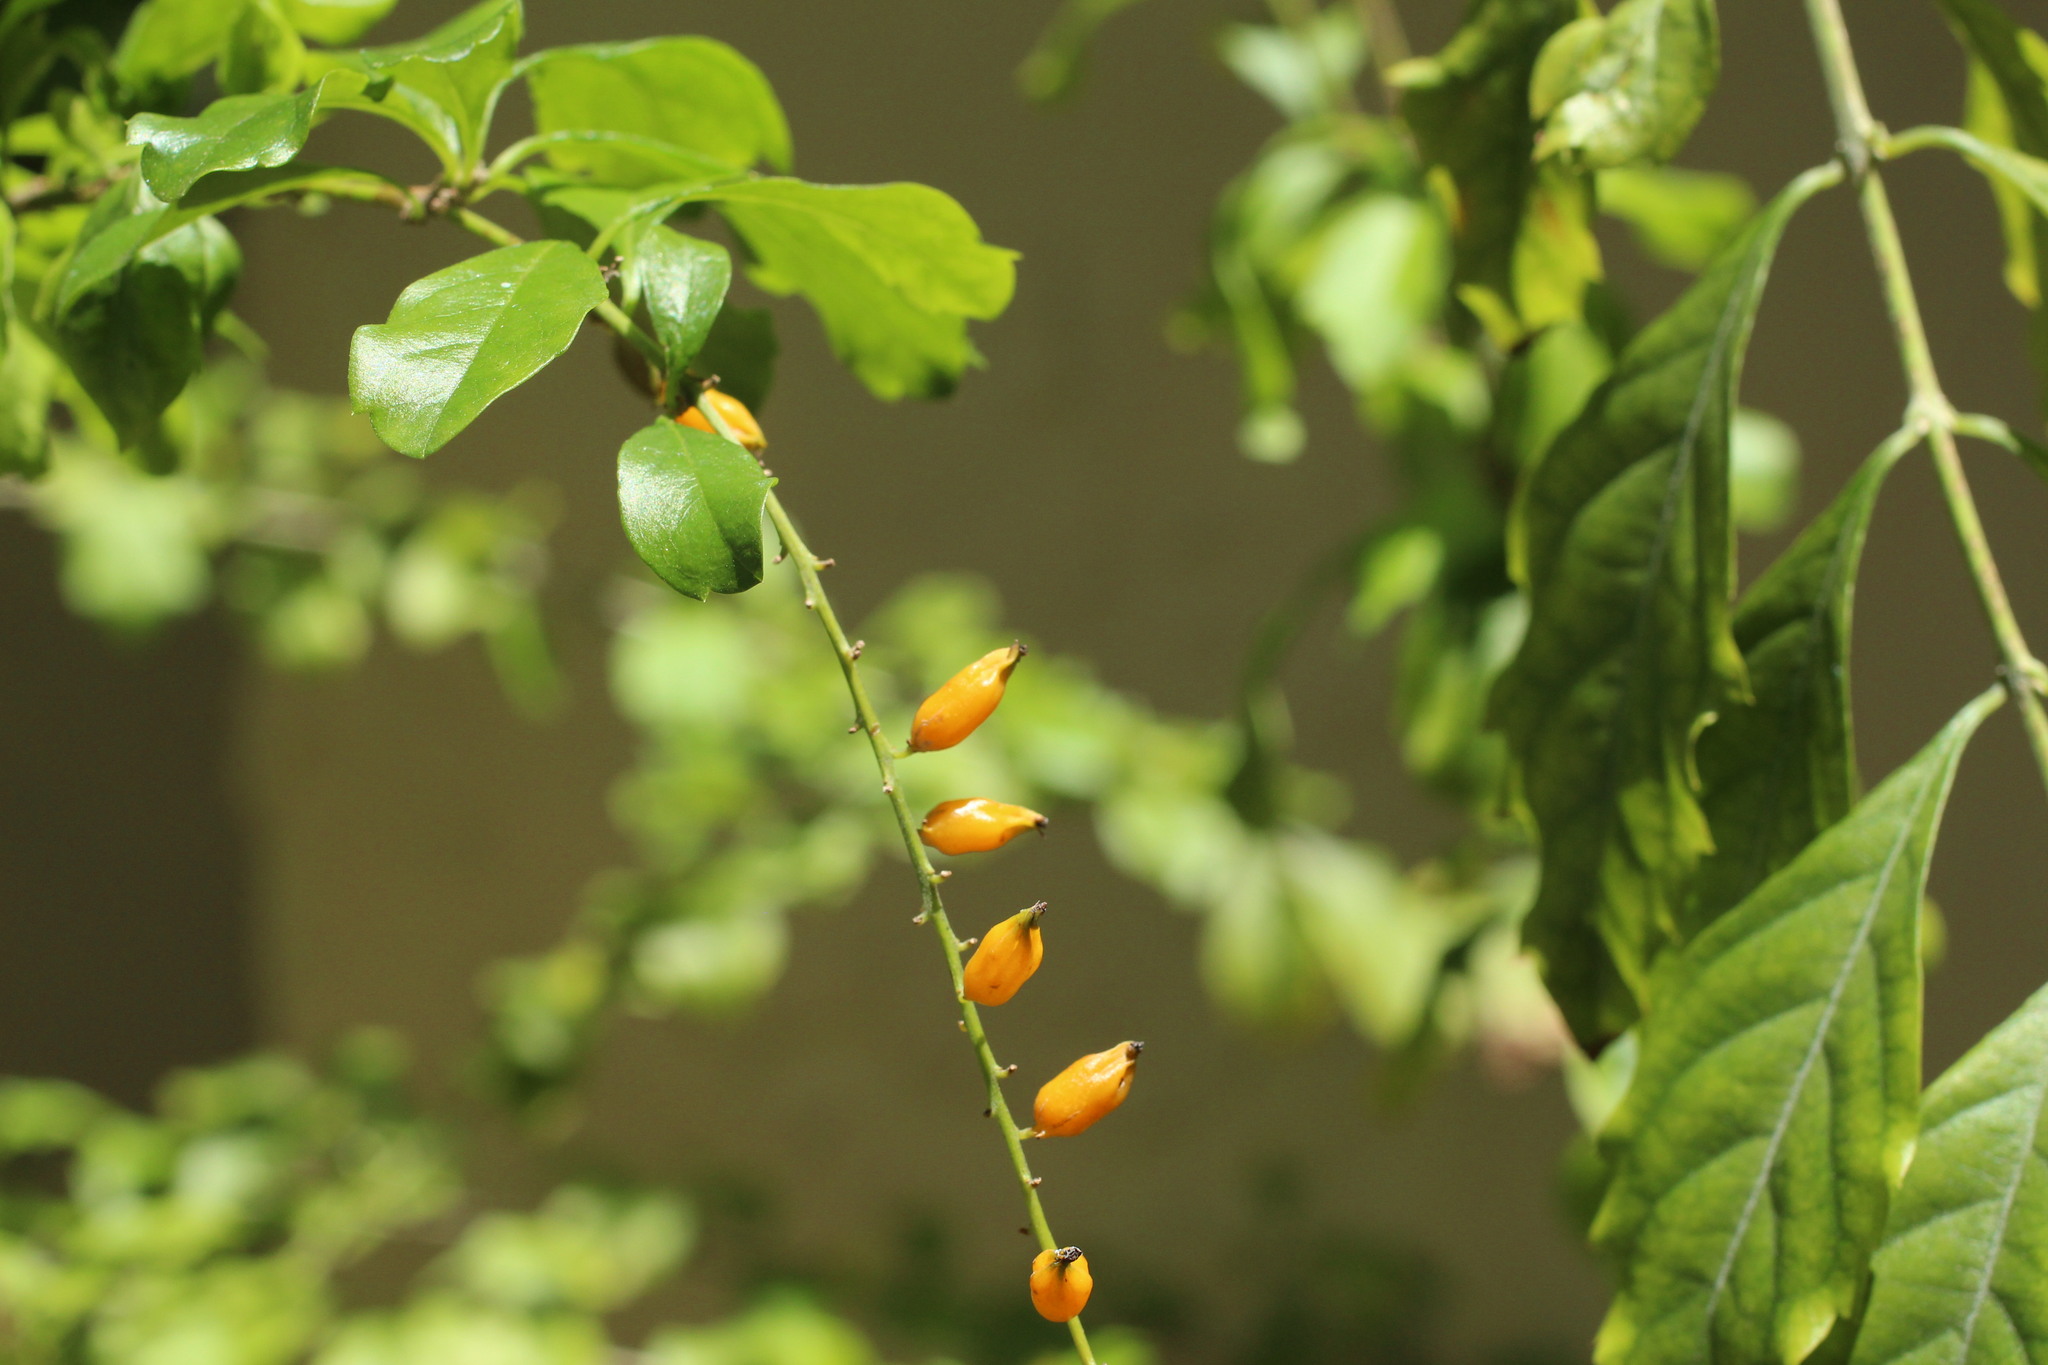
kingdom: Plantae
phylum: Tracheophyta
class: Magnoliopsida
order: Lamiales
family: Verbenaceae
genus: Duranta
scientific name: Duranta erecta
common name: Golden dewdrops
